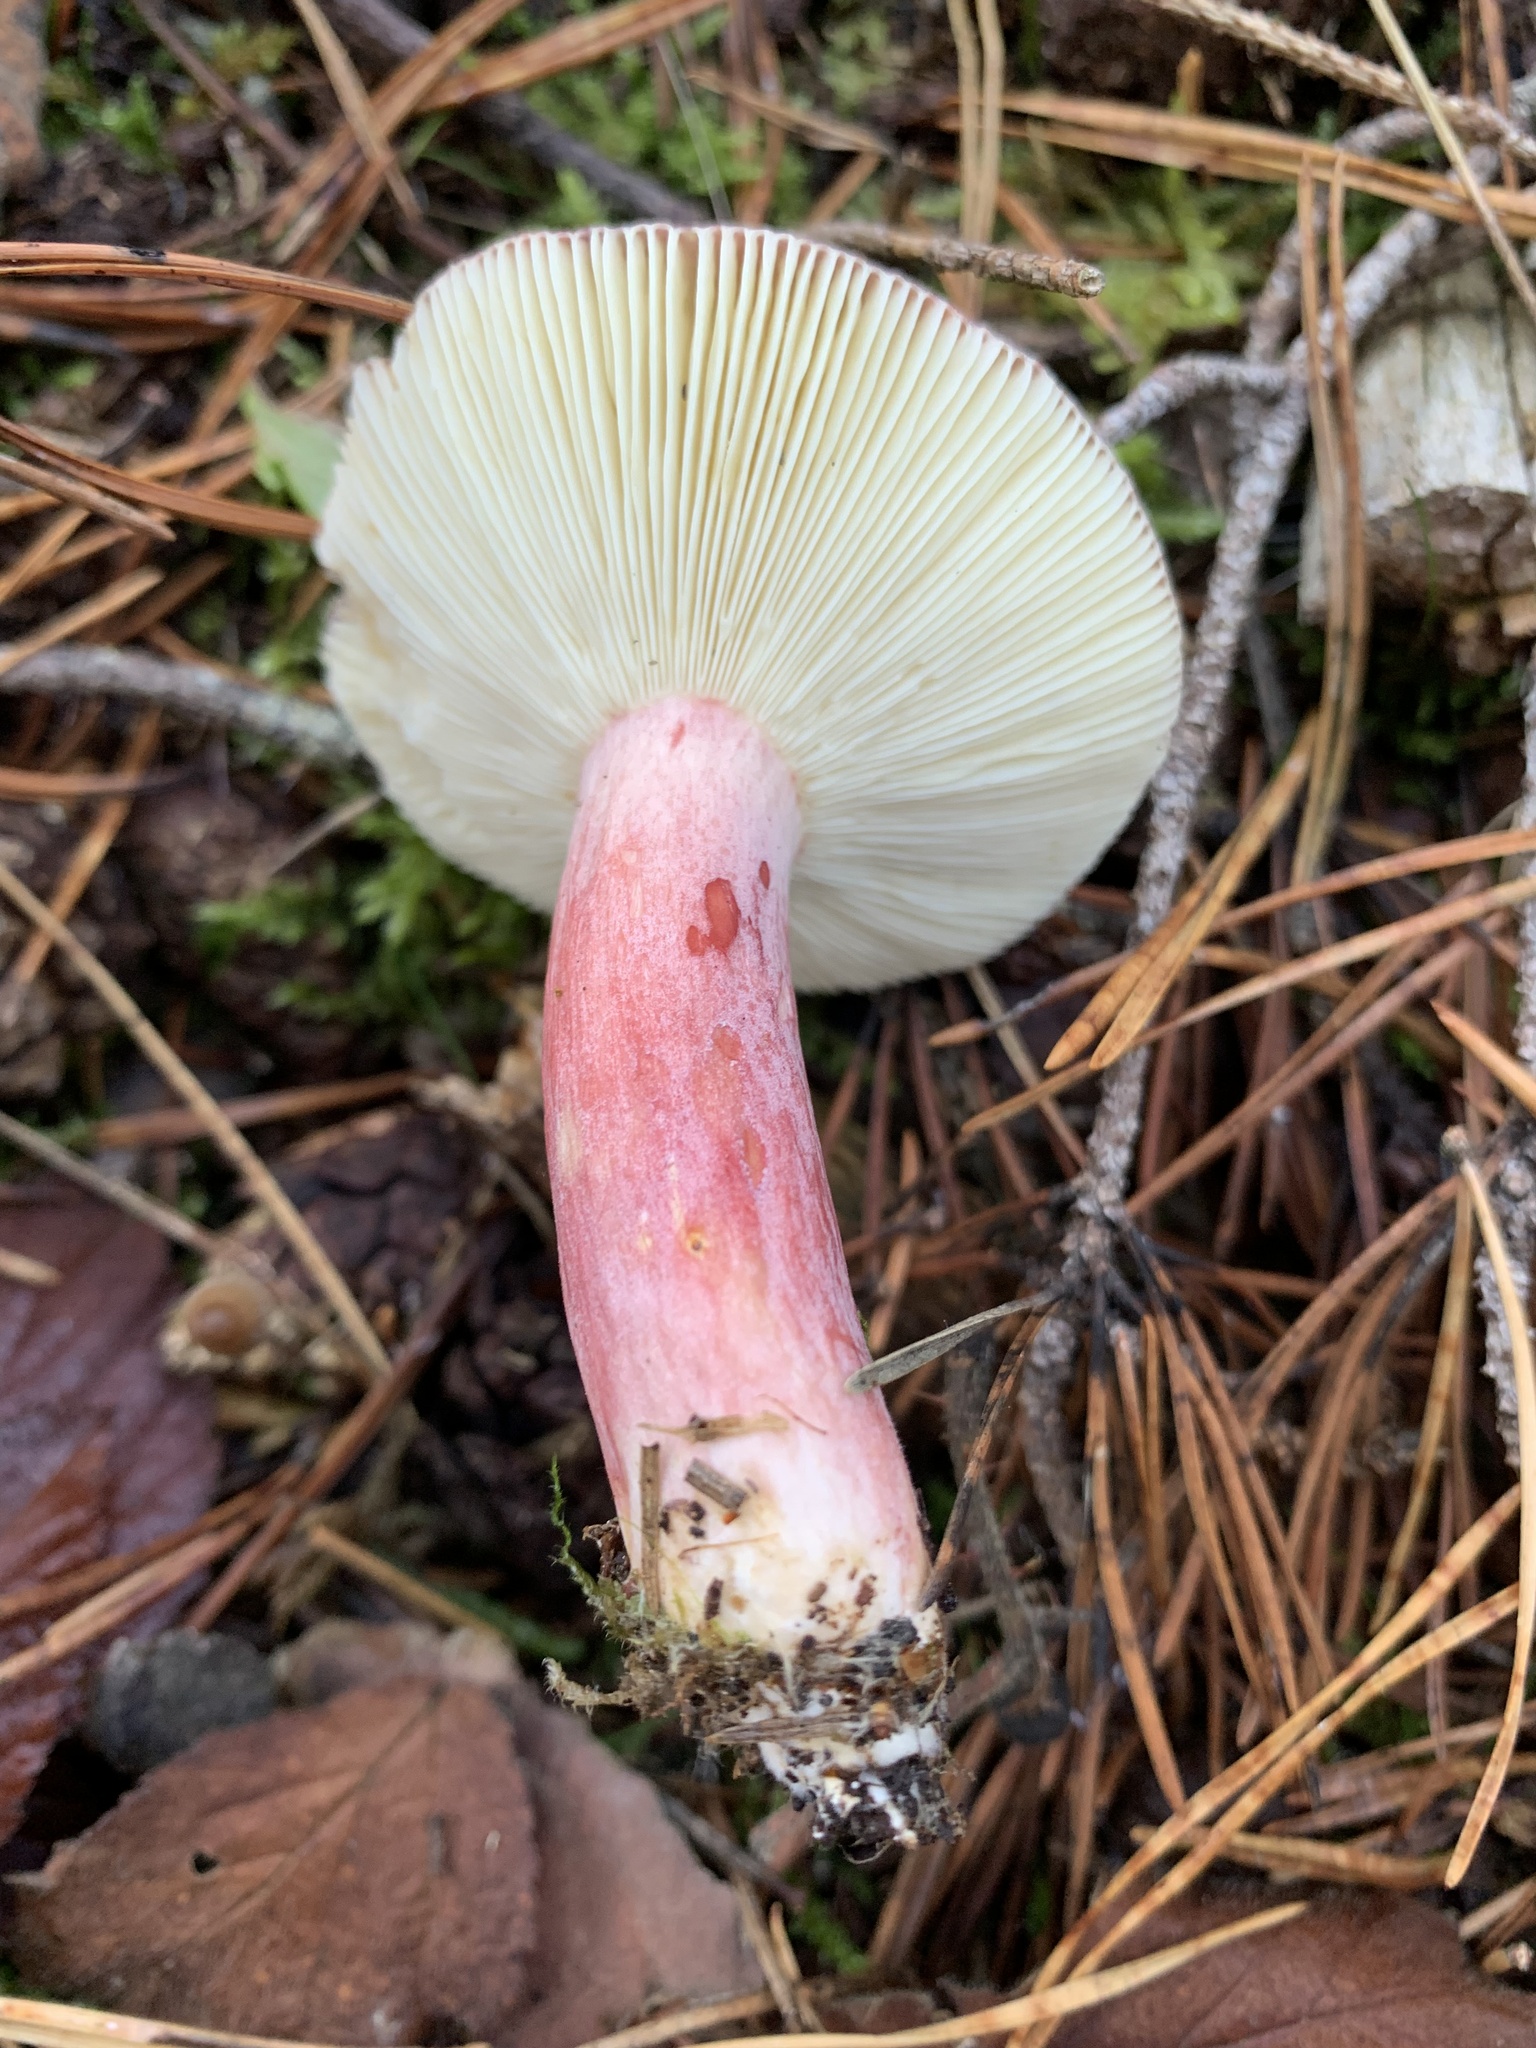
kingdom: Fungi
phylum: Basidiomycota
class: Agaricomycetes
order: Russulales
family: Russulaceae
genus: Russula
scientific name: Russula sardonia
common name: Primrose brittlegill
